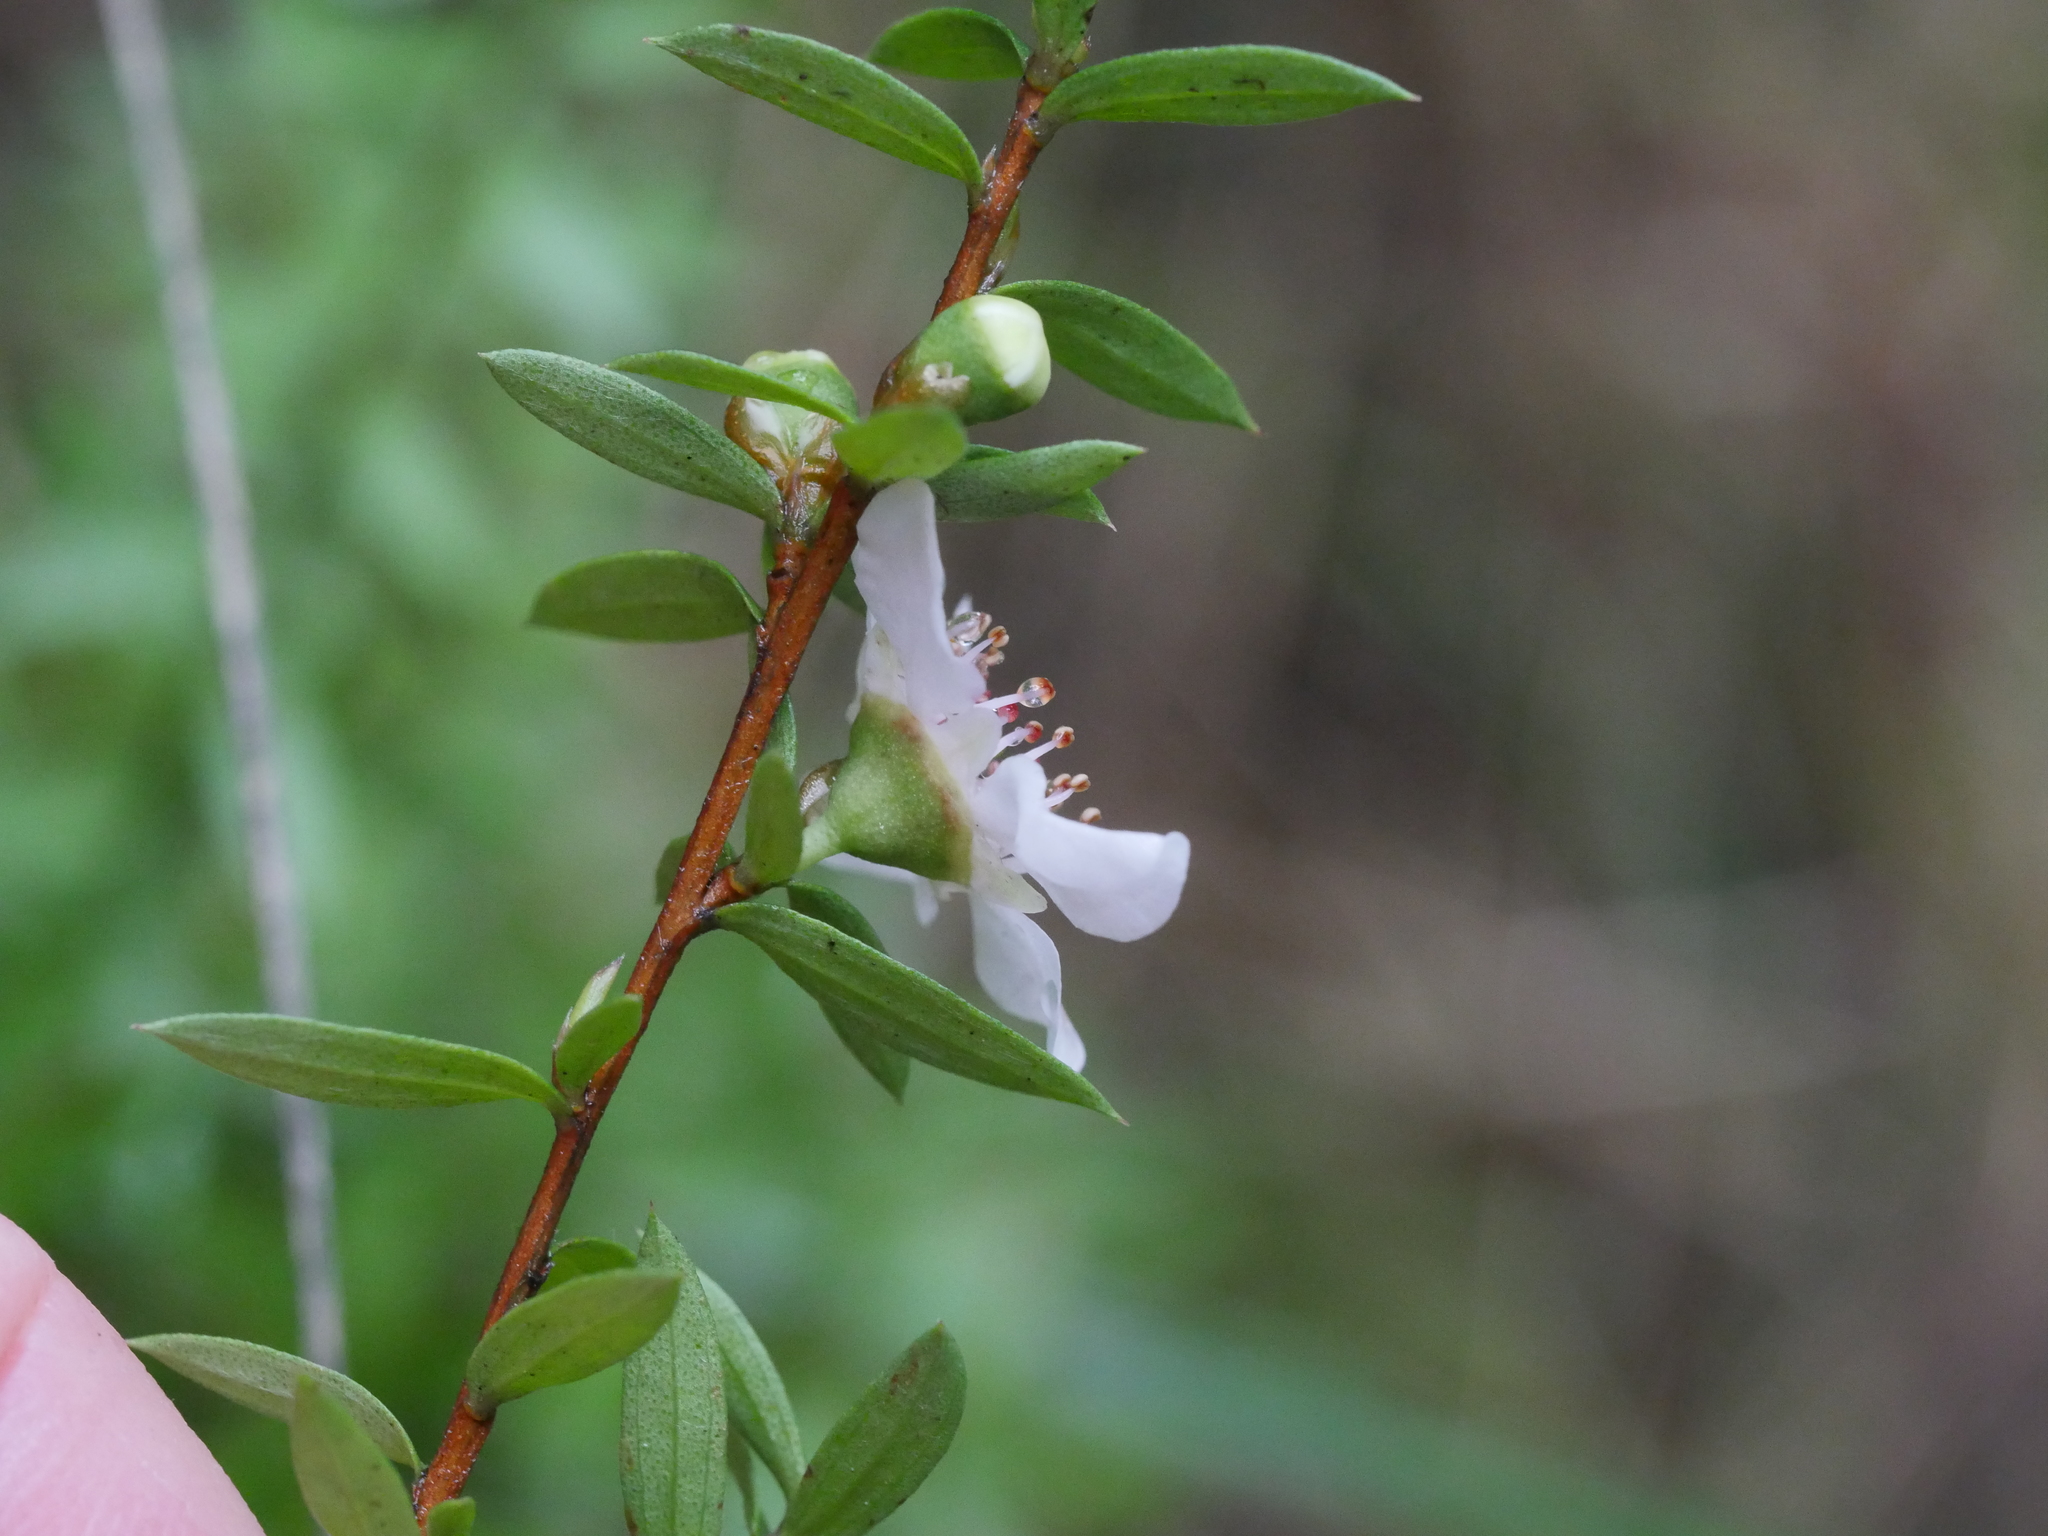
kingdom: Plantae
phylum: Tracheophyta
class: Magnoliopsida
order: Myrtales
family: Myrtaceae
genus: Leptospermum
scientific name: Leptospermum scoparium
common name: Broom tea-tree
